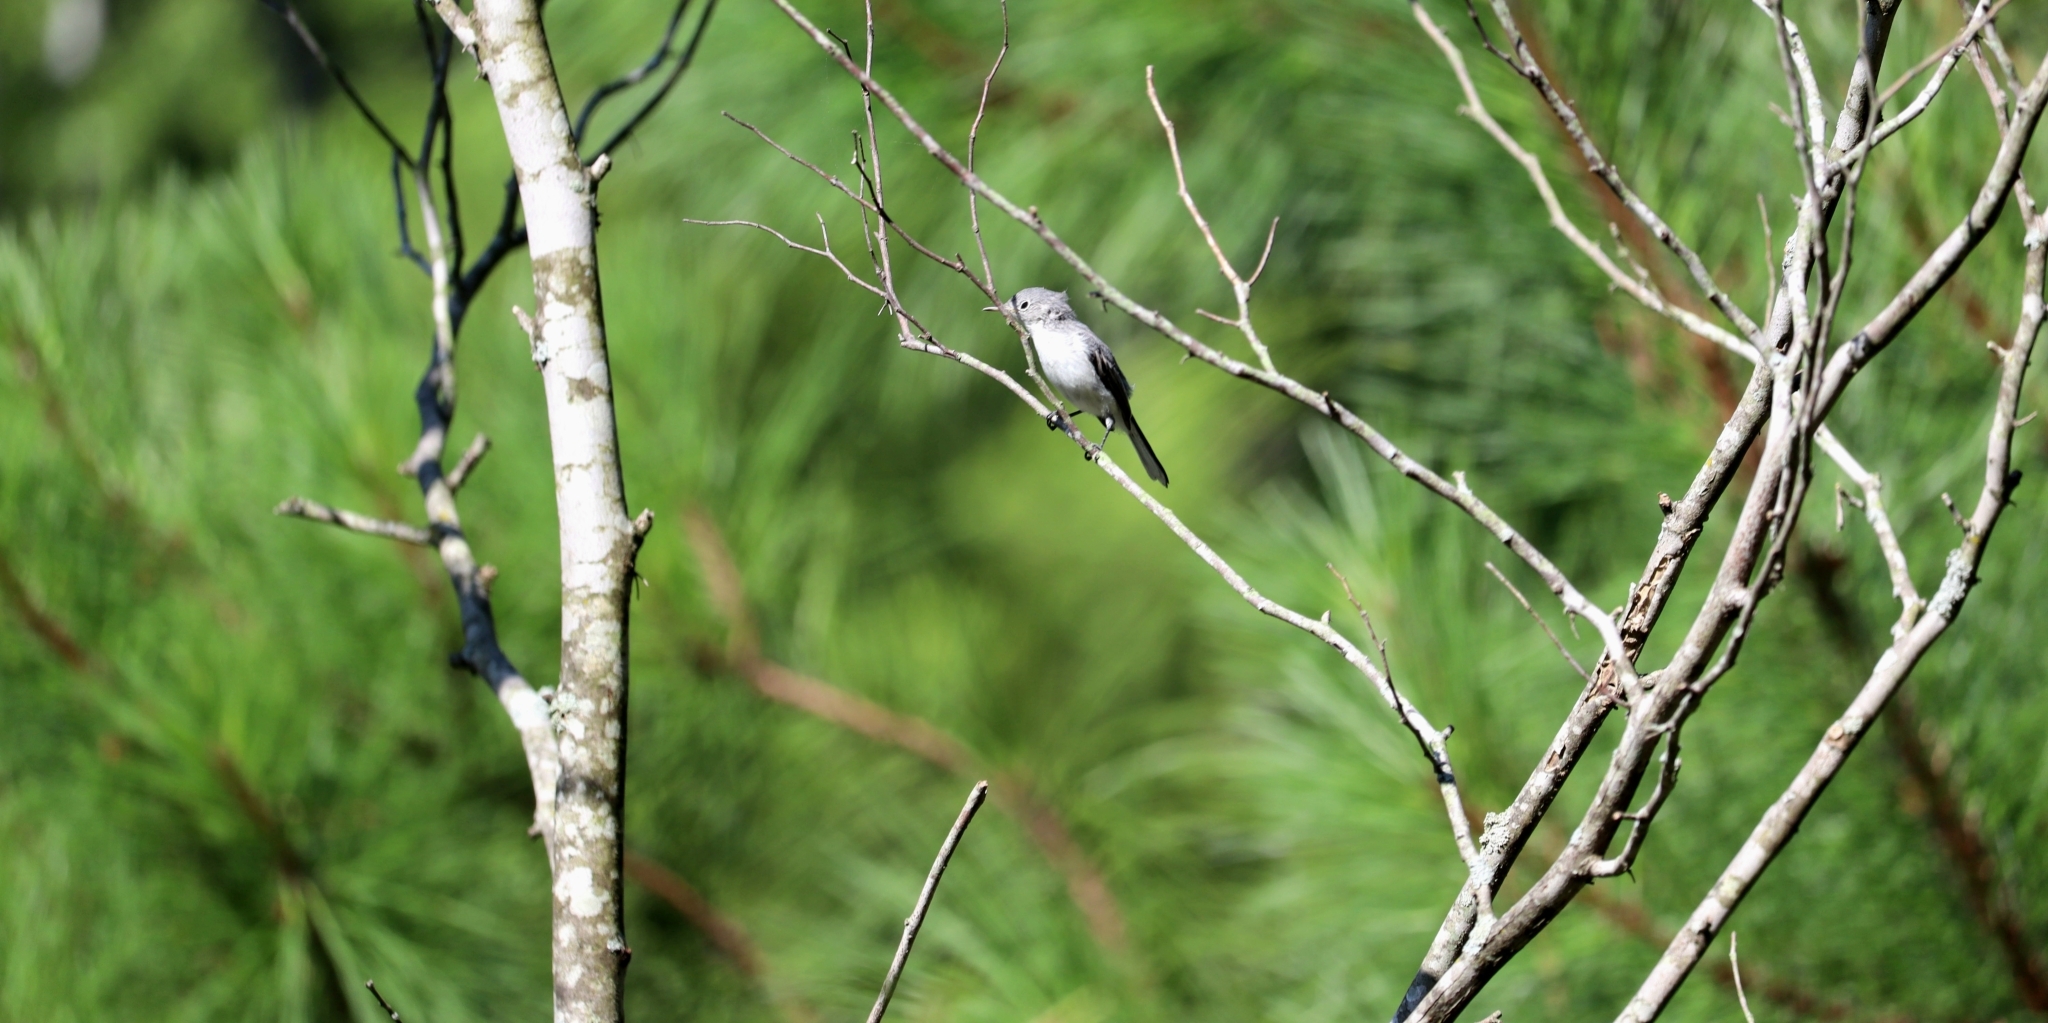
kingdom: Animalia
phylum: Chordata
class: Aves
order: Passeriformes
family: Polioptilidae
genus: Polioptila
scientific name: Polioptila caerulea
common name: Blue-gray gnatcatcher
